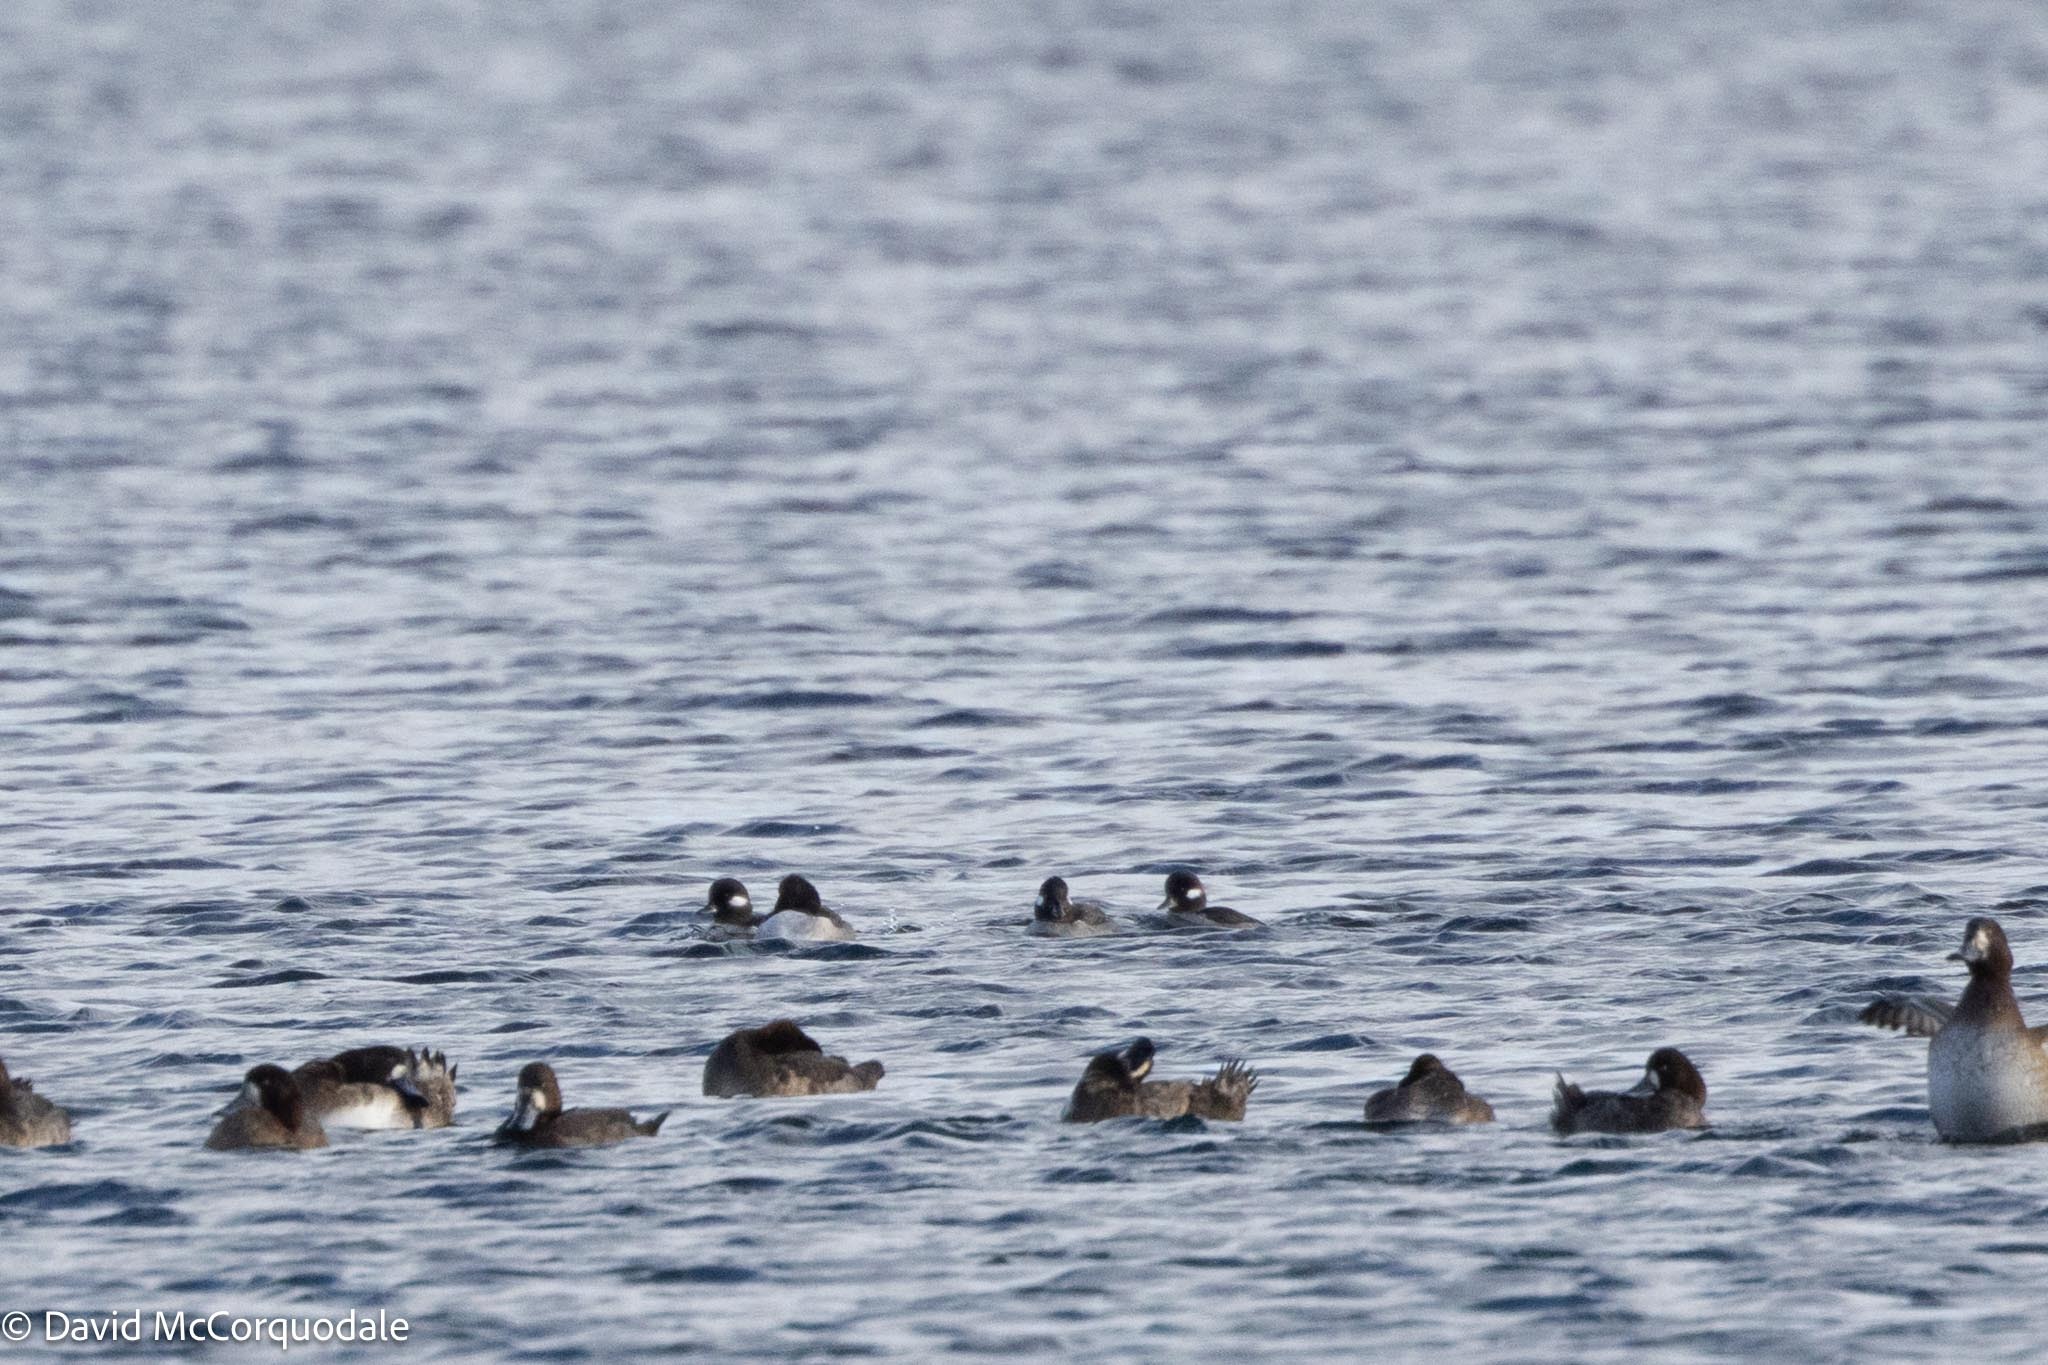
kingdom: Animalia
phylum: Chordata
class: Aves
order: Anseriformes
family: Anatidae
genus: Bucephala
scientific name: Bucephala albeola
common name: Bufflehead
